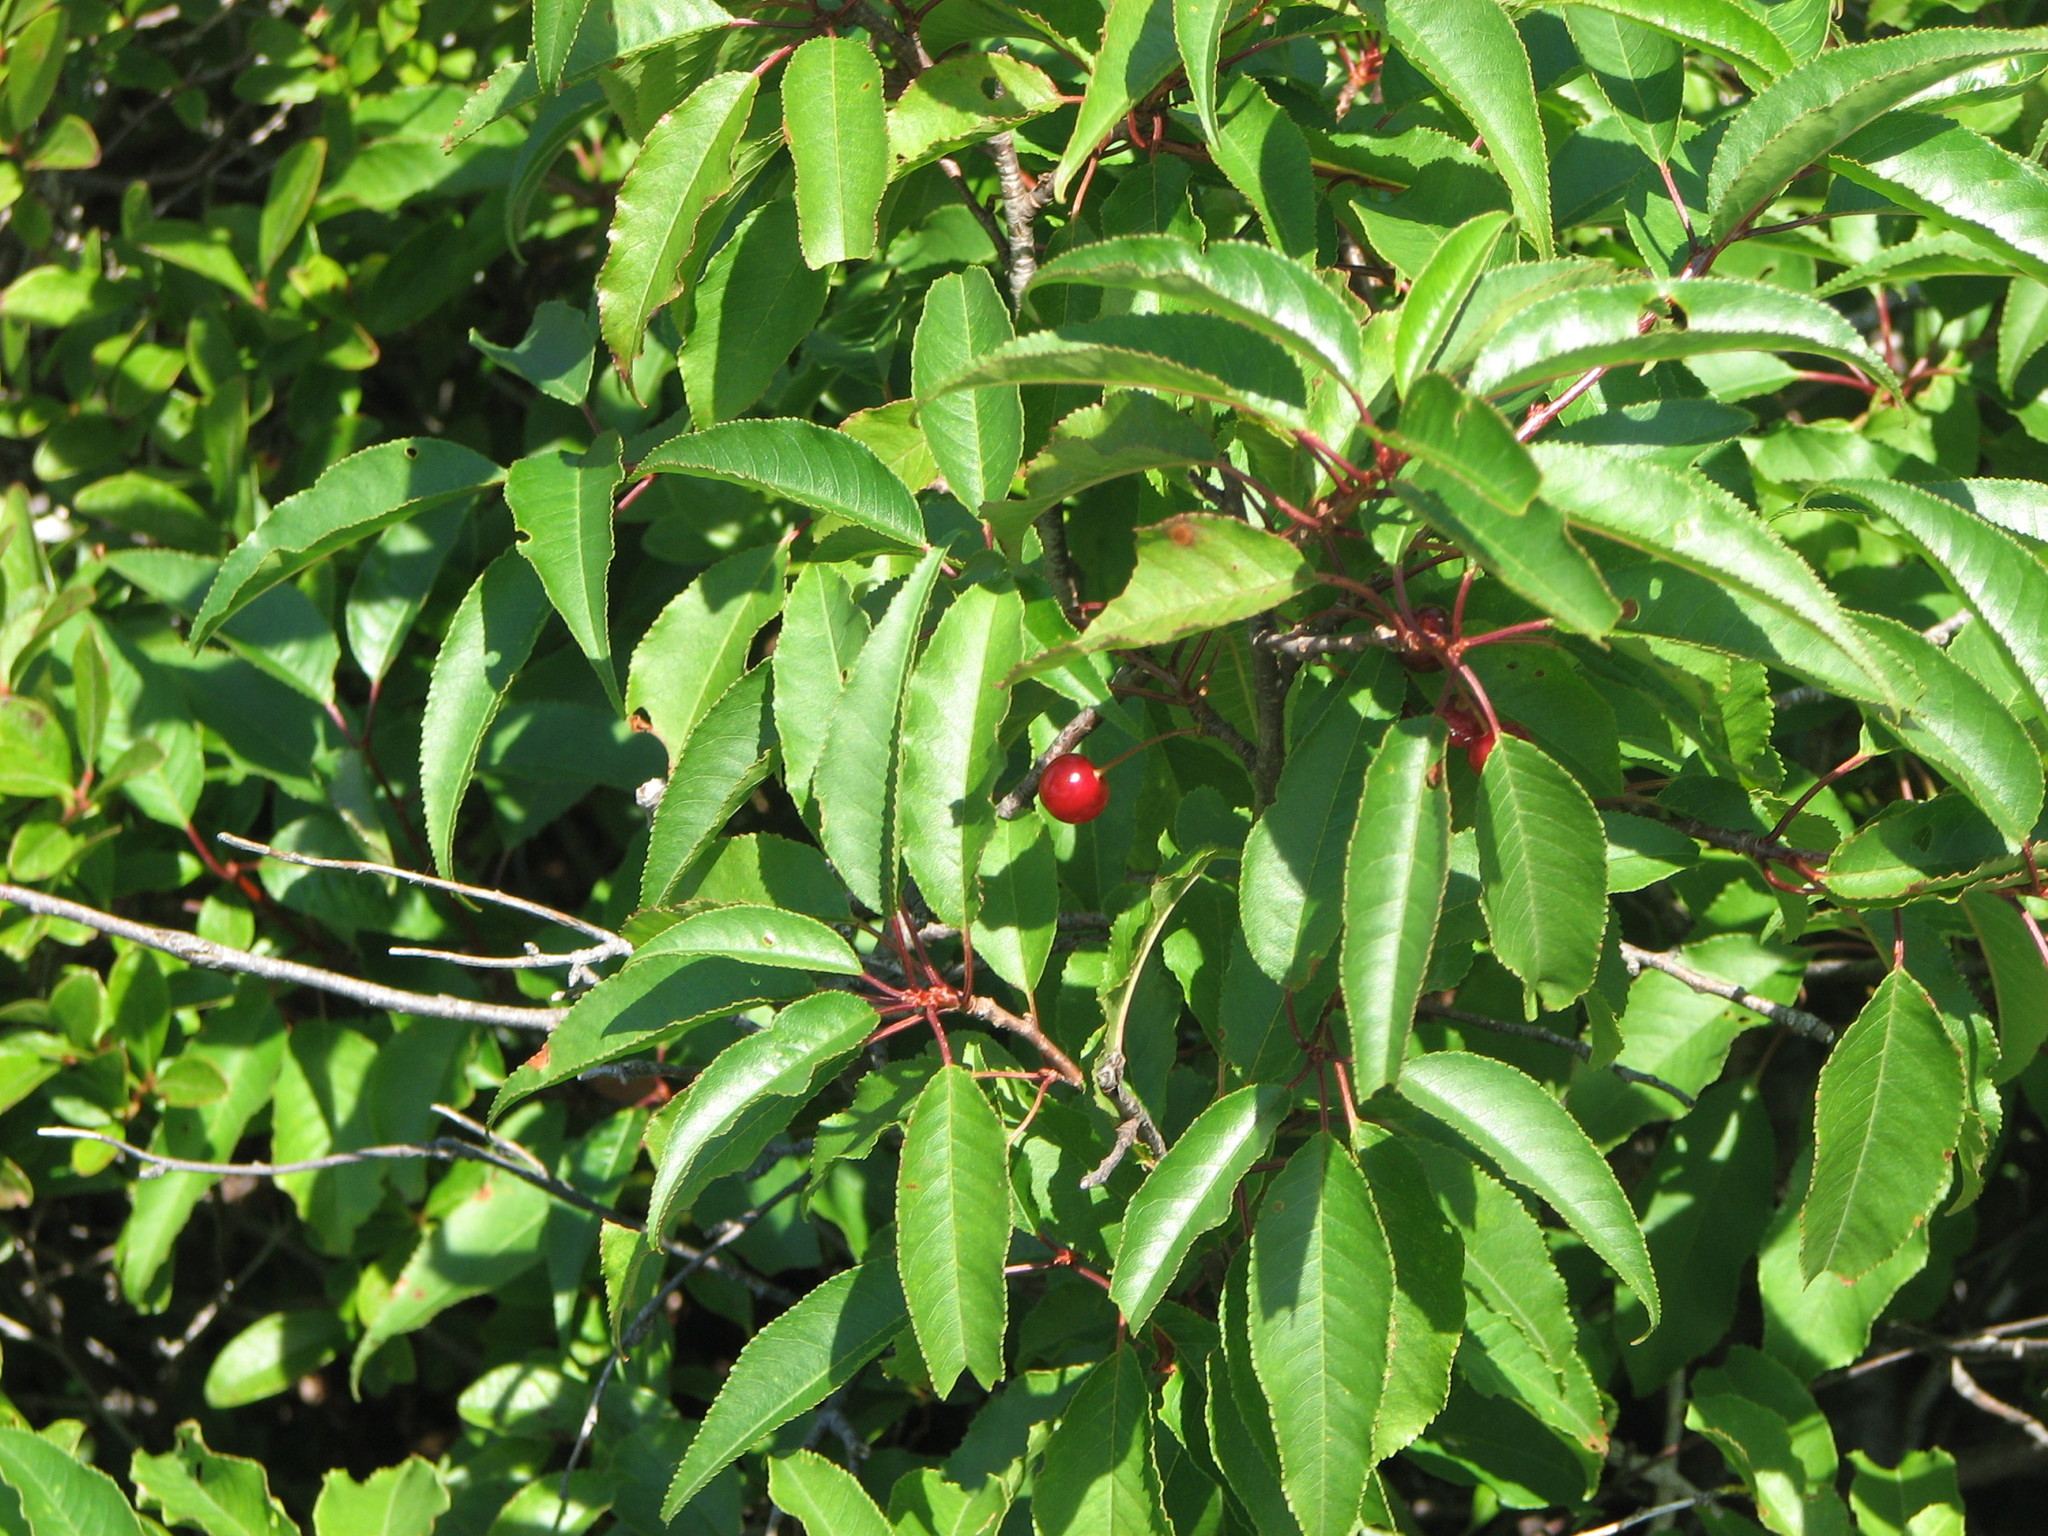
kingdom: Plantae
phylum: Tracheophyta
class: Magnoliopsida
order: Rosales
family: Rosaceae
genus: Prunus
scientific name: Prunus pensylvanica
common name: Pin cherry
